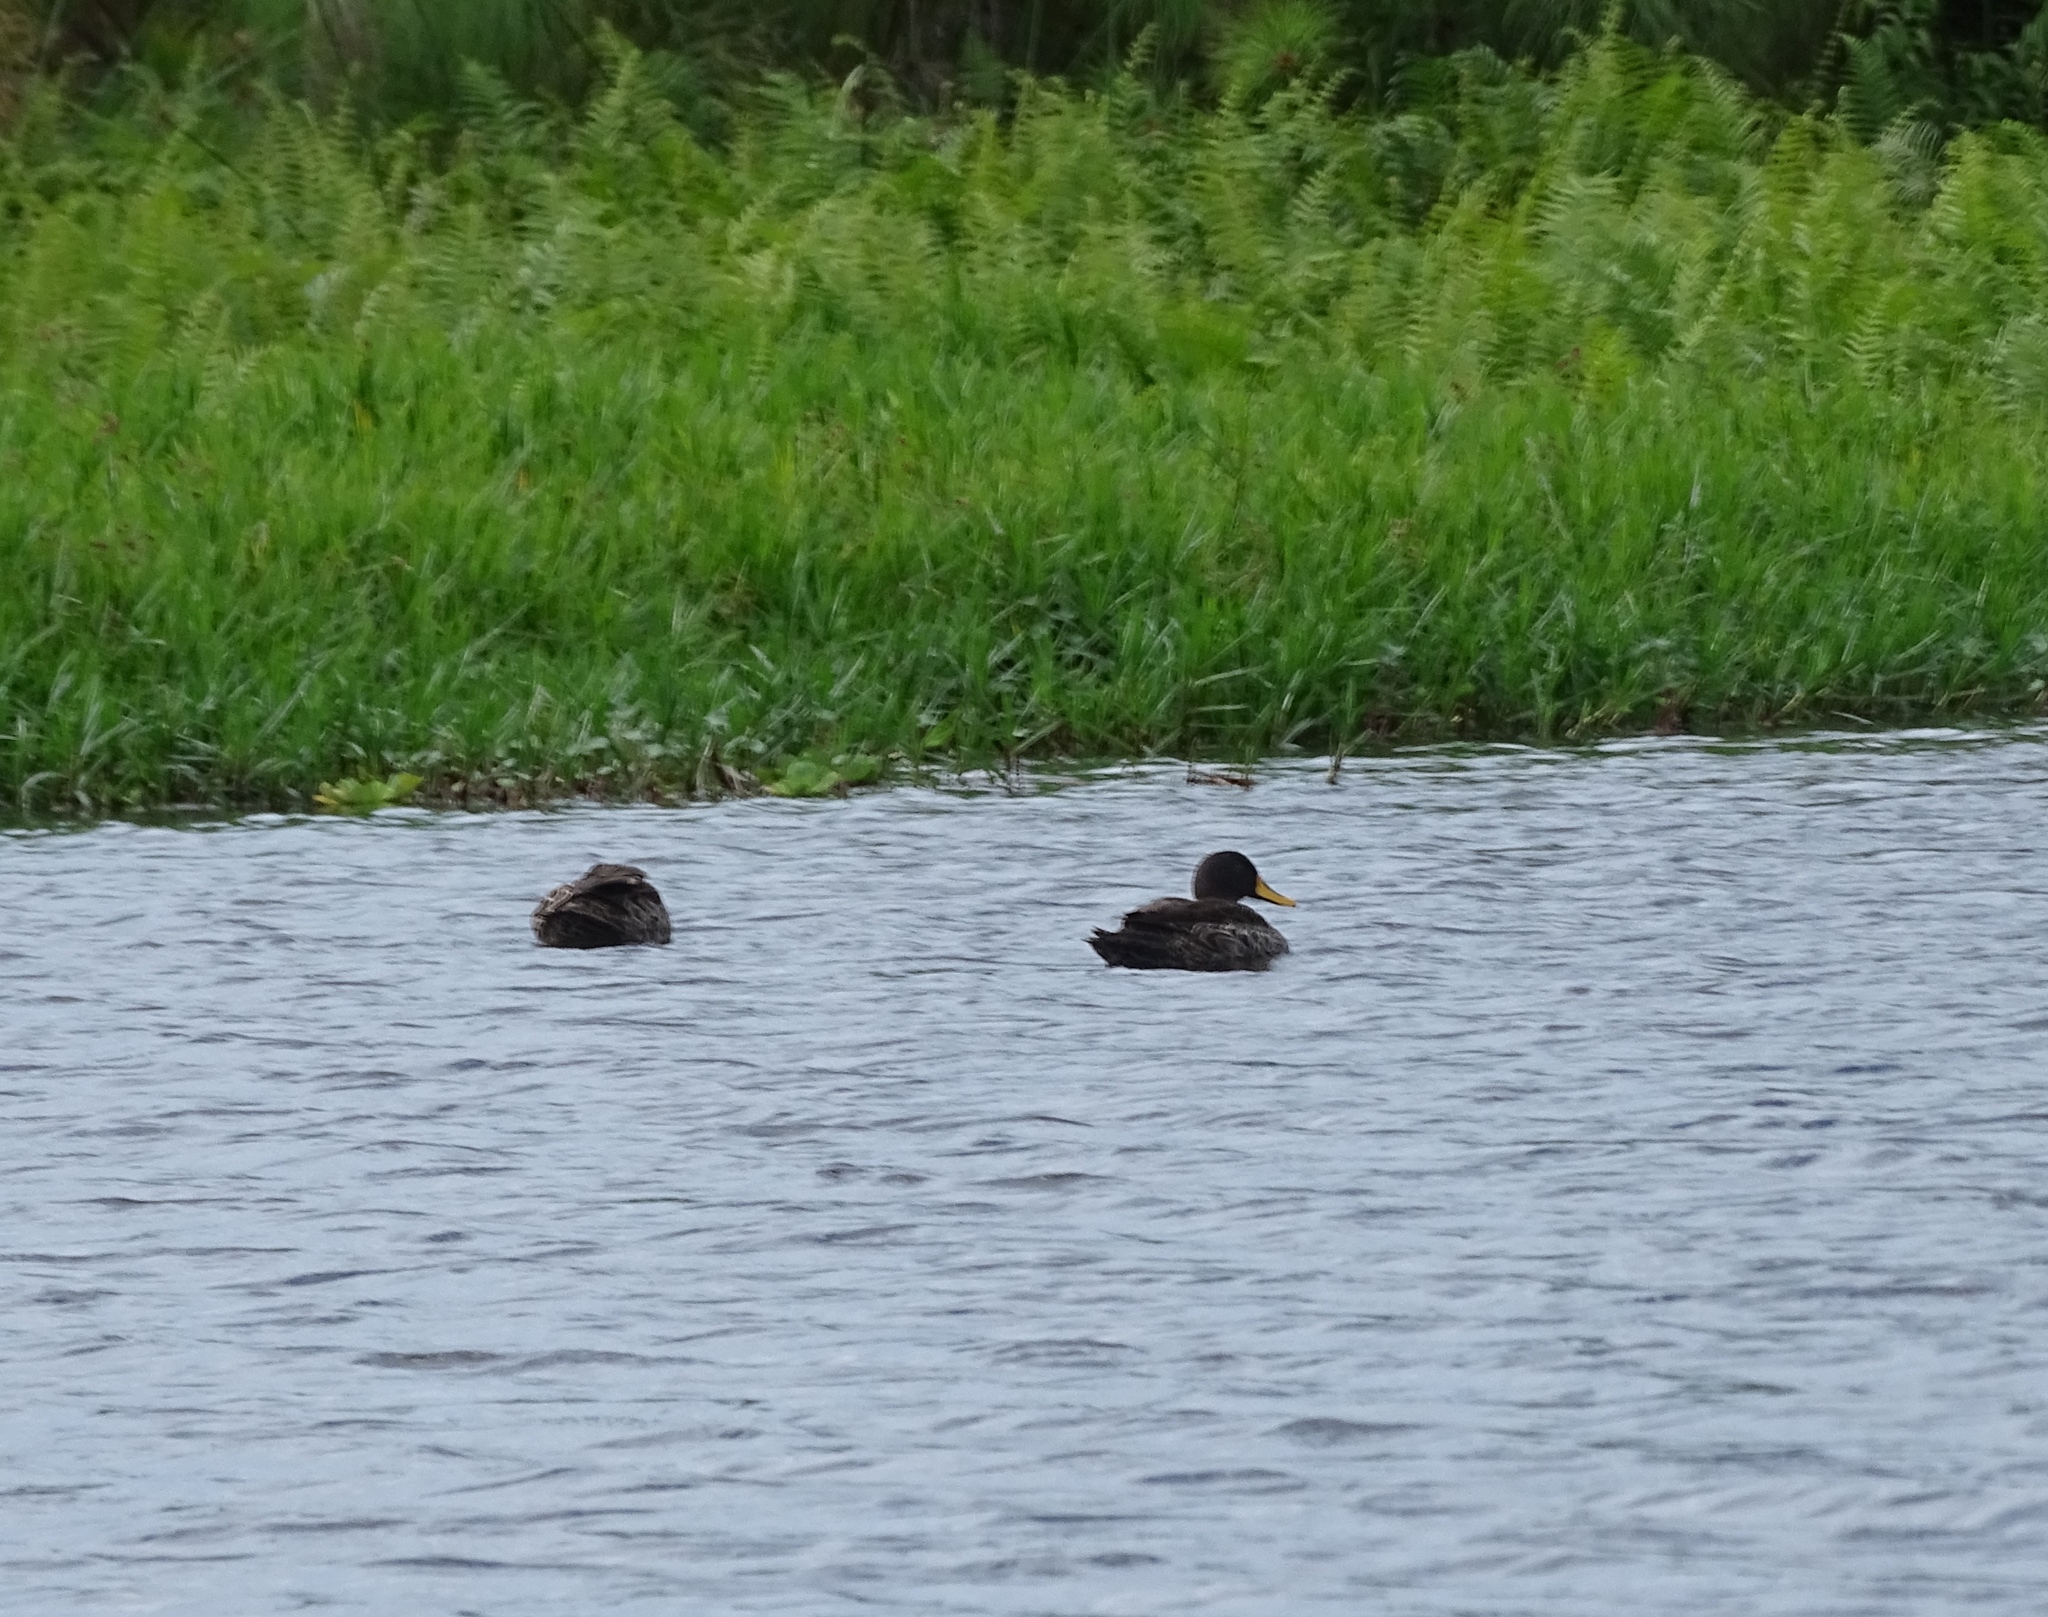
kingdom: Animalia
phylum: Chordata
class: Aves
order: Anseriformes
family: Anatidae
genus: Anas
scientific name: Anas undulata
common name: Yellow-billed duck
